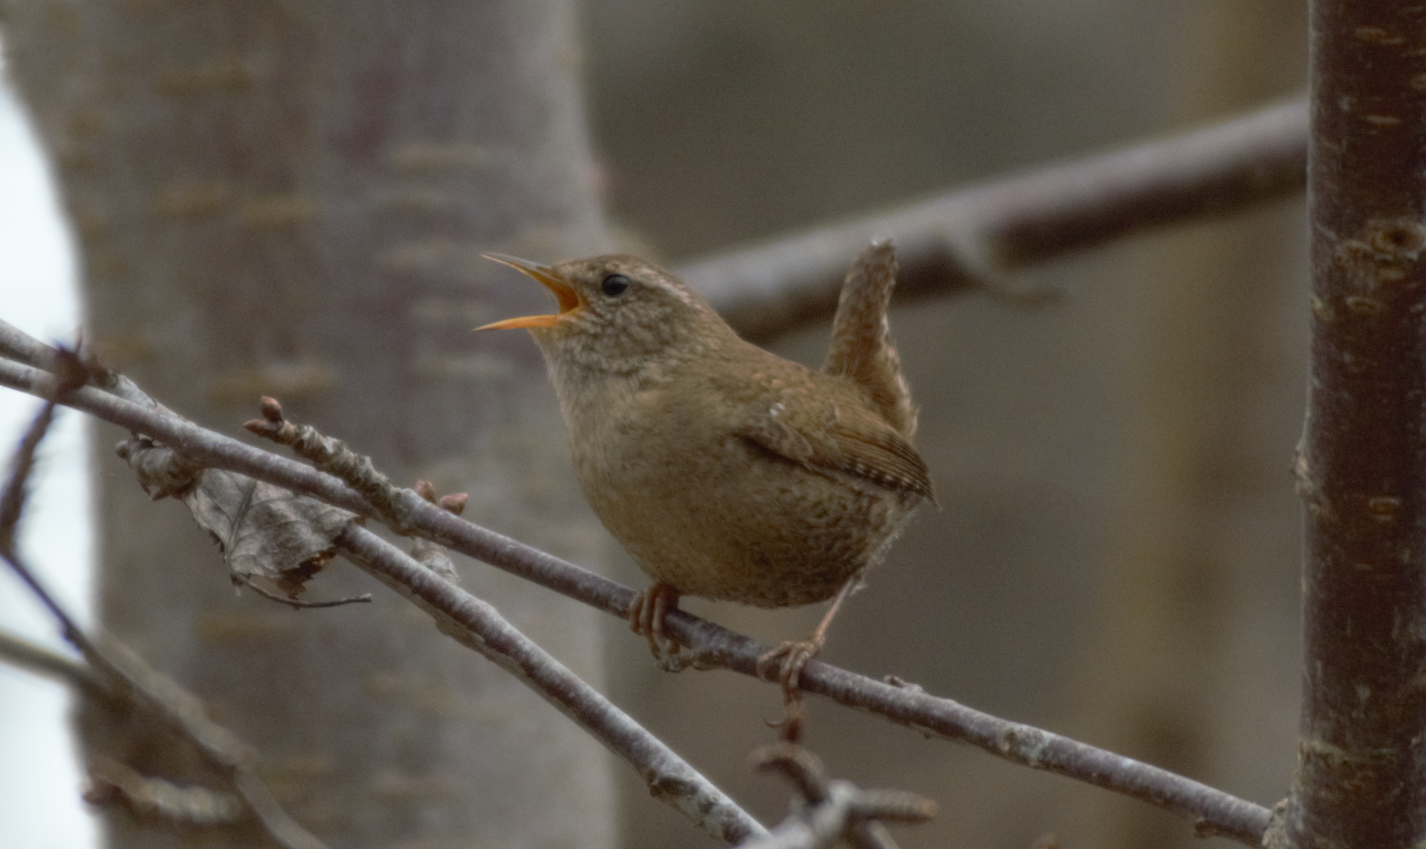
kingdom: Animalia
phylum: Chordata
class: Aves
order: Passeriformes
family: Troglodytidae
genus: Troglodytes
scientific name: Troglodytes troglodytes
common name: Eurasian wren
